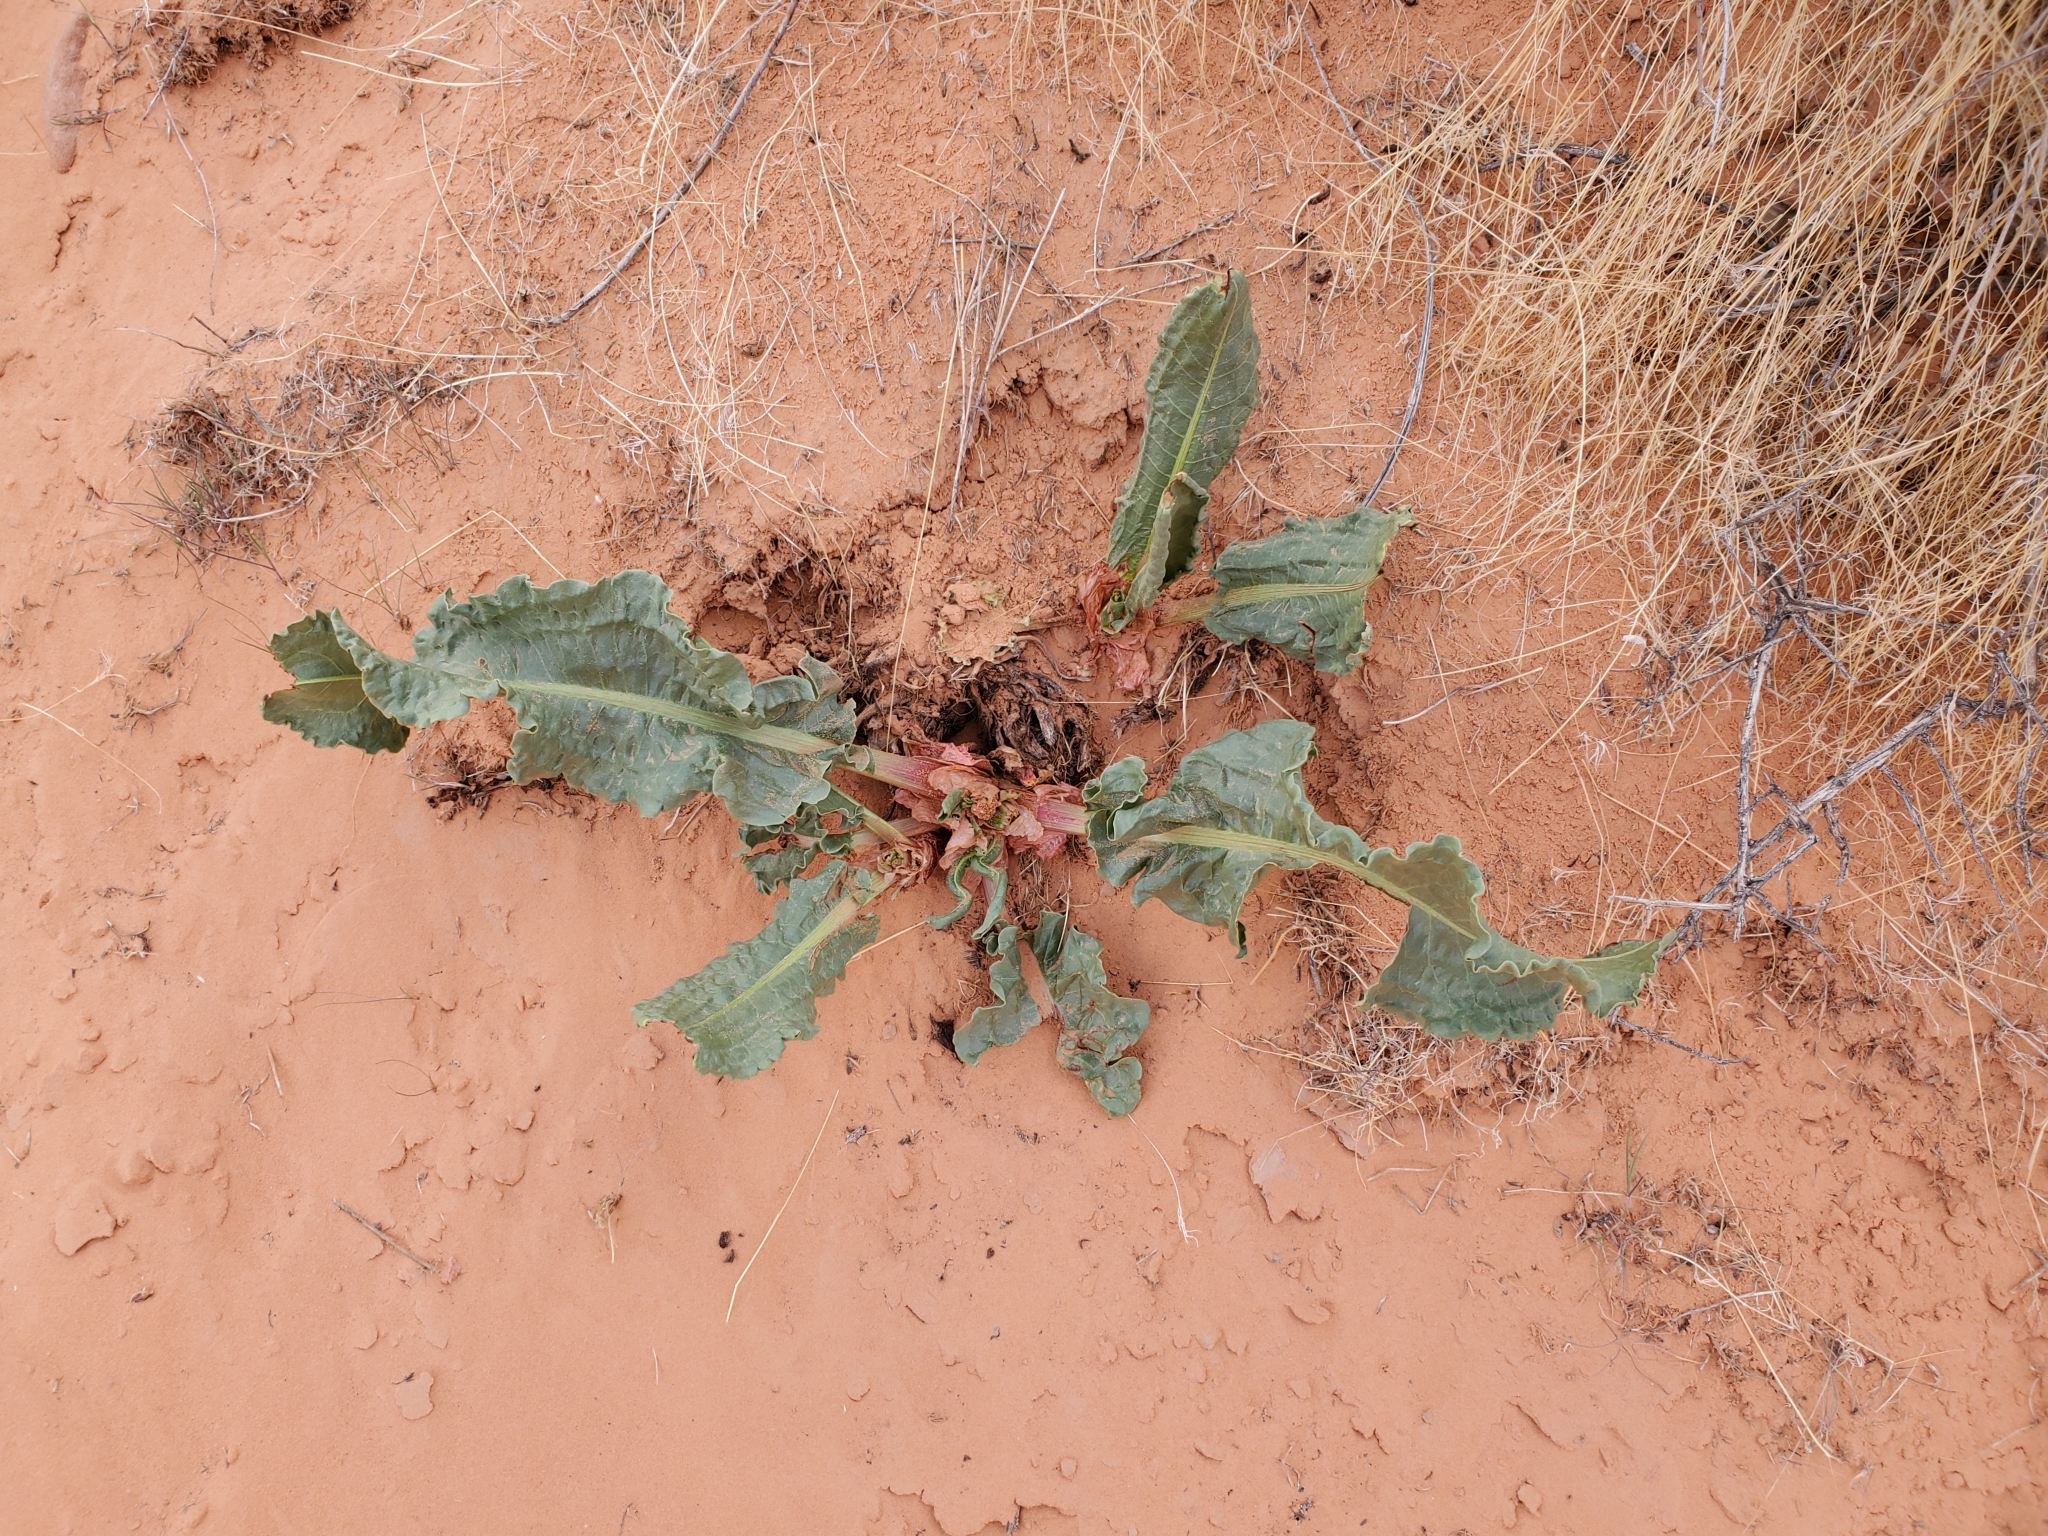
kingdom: Plantae
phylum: Tracheophyta
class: Magnoliopsida
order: Caryophyllales
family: Polygonaceae
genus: Rumex
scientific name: Rumex hymenosepalus
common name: Ganagra
